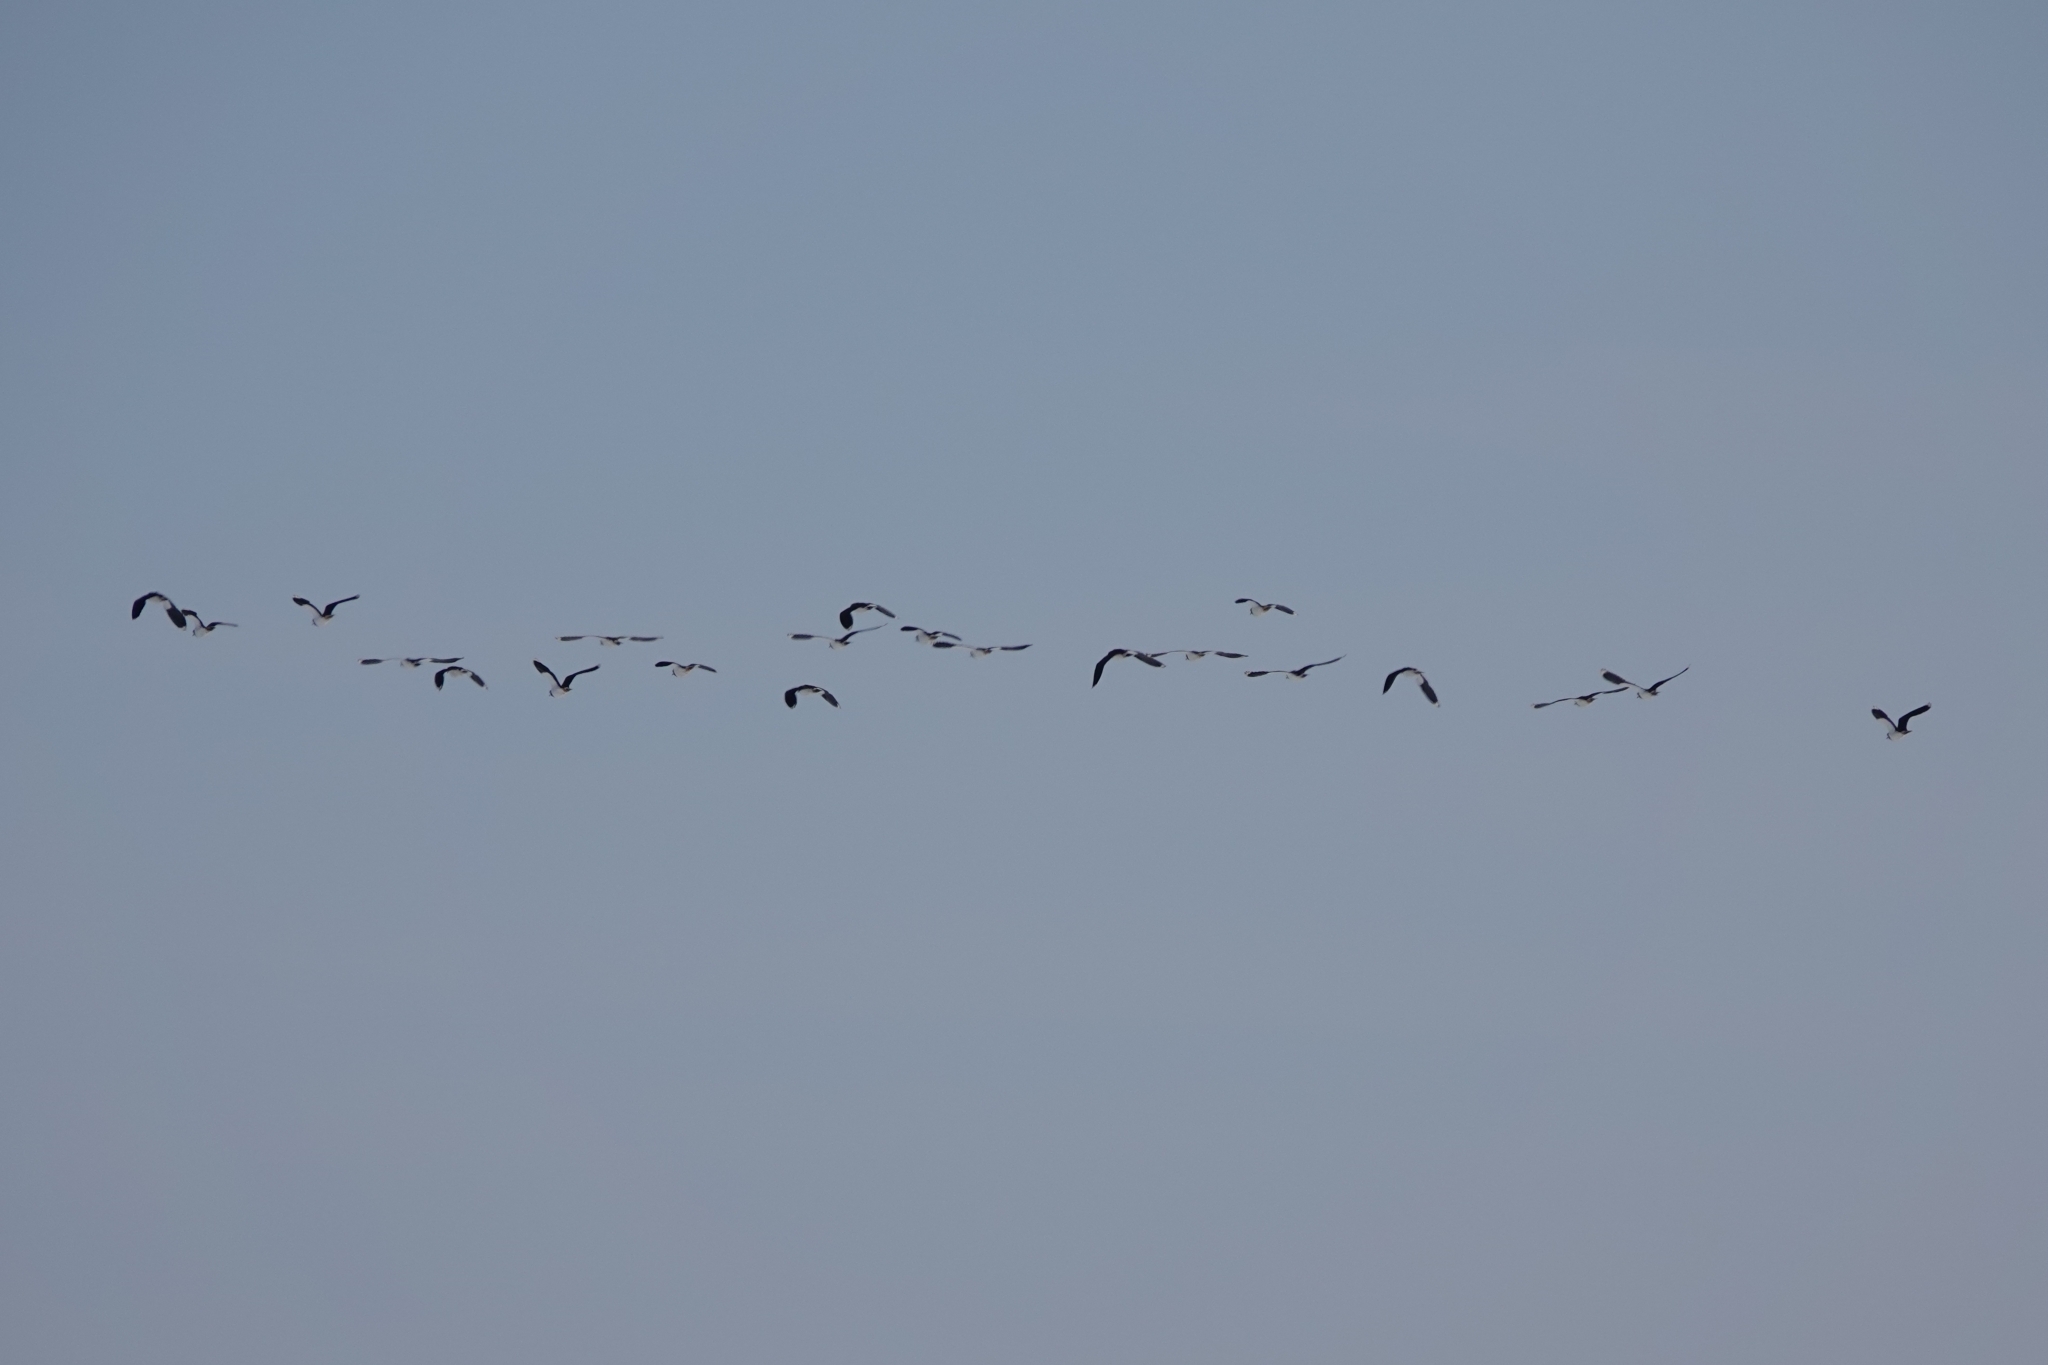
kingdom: Animalia
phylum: Chordata
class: Aves
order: Charadriiformes
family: Charadriidae
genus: Vanellus
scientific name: Vanellus vanellus
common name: Northern lapwing
